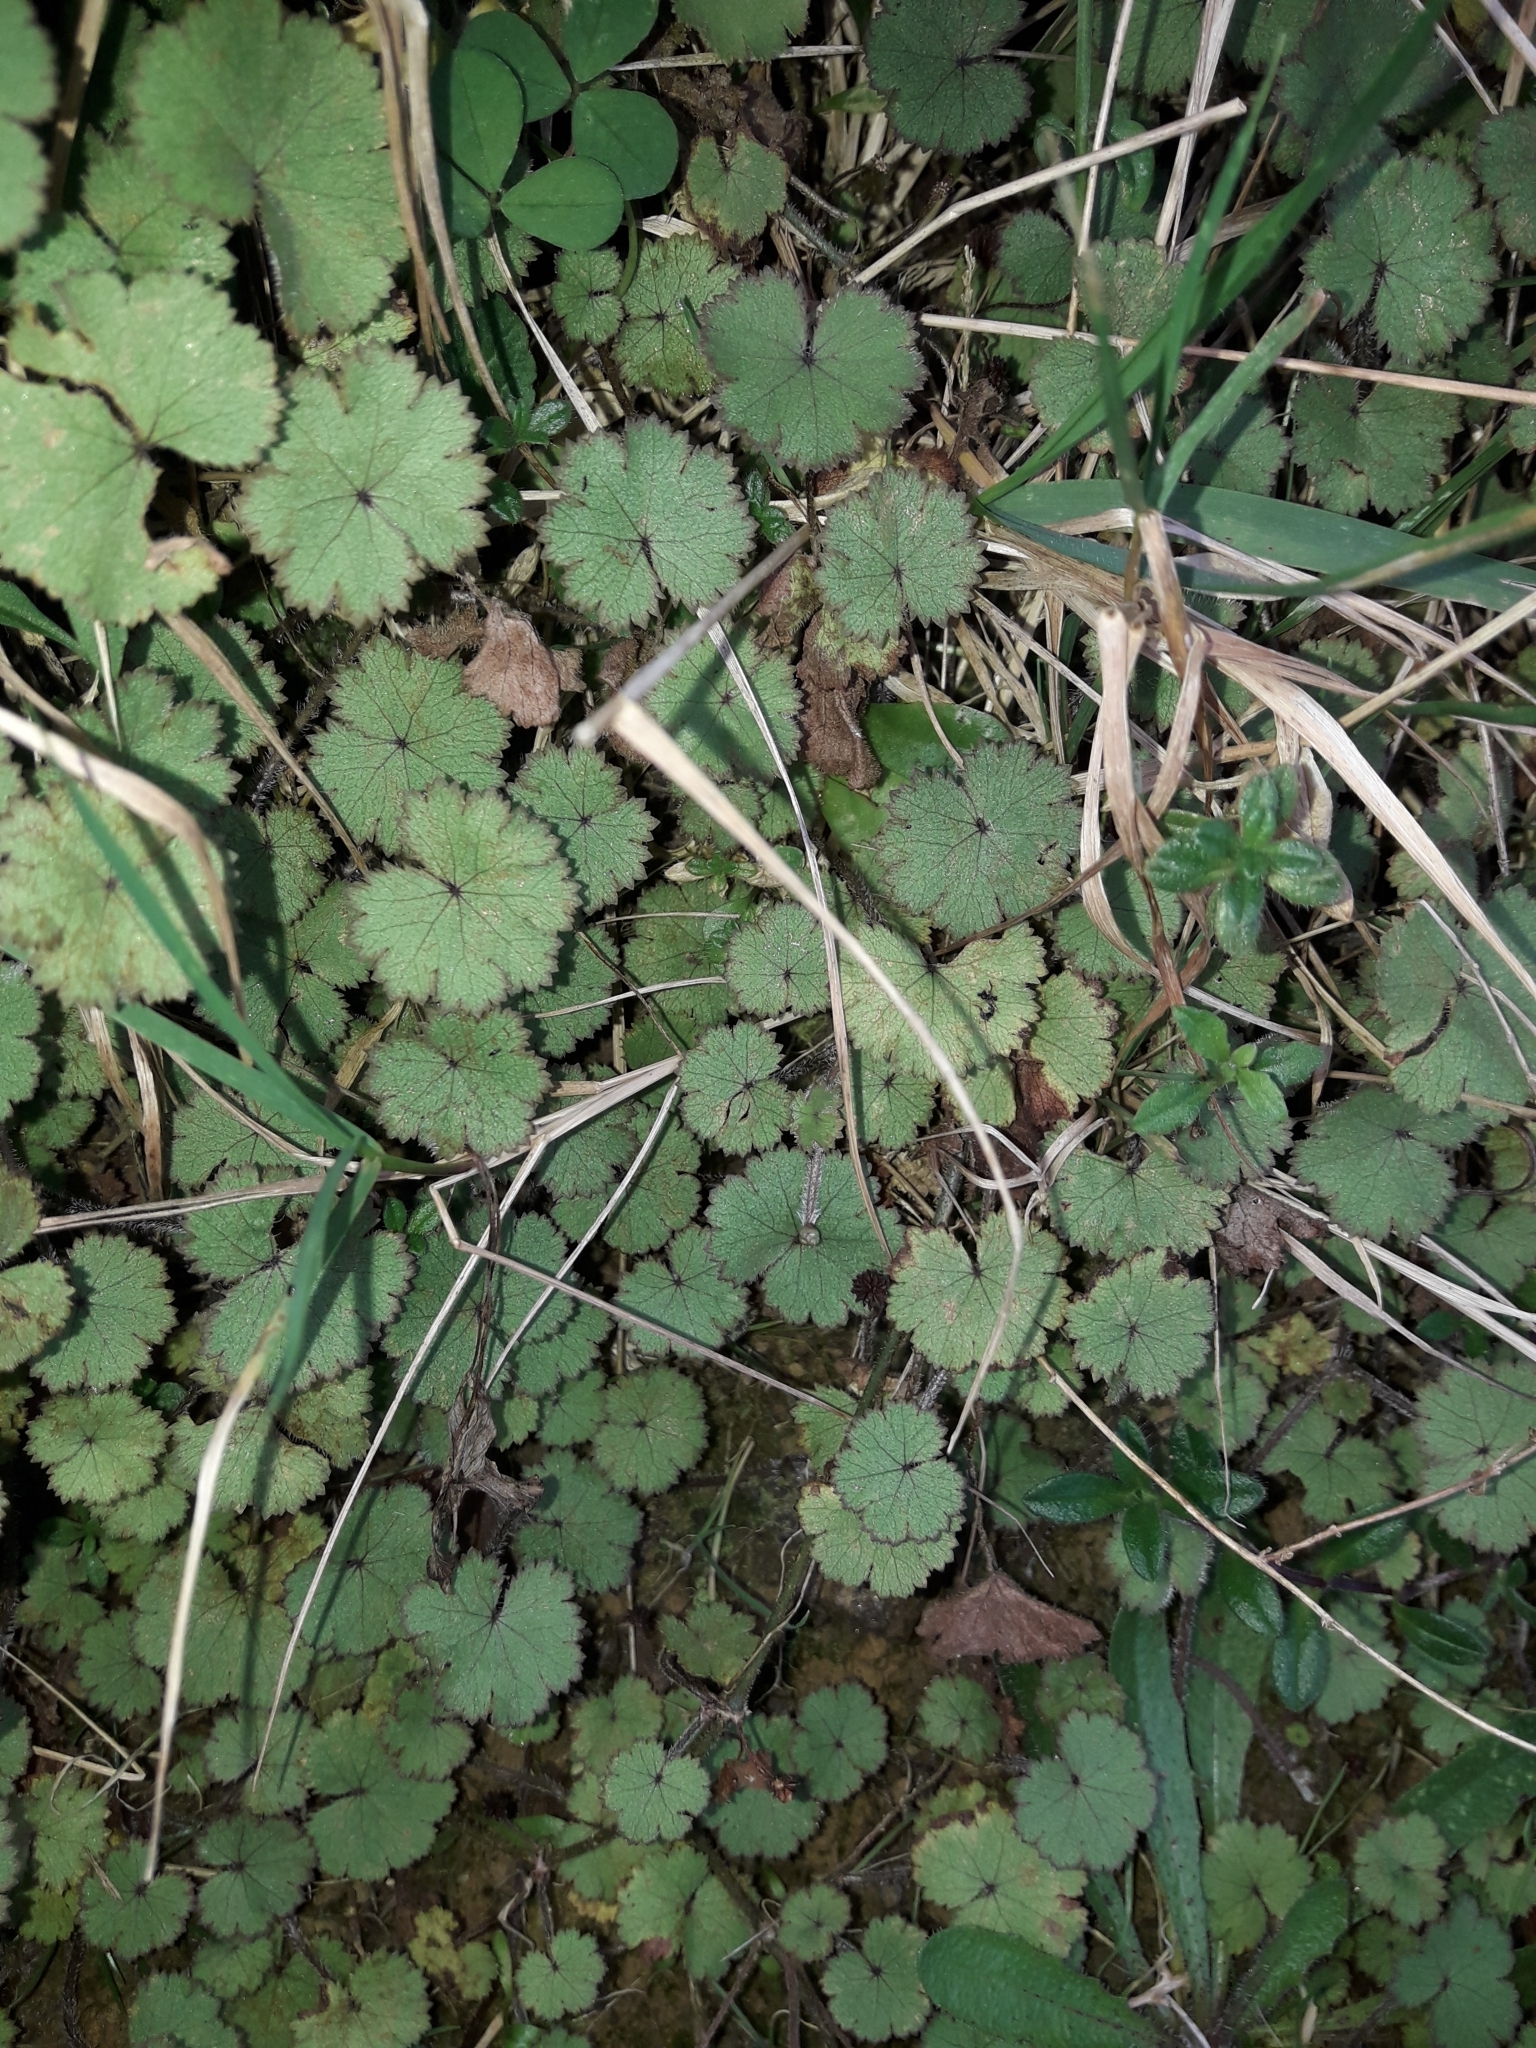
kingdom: Plantae
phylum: Tracheophyta
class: Magnoliopsida
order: Apiales
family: Araliaceae
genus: Hydrocotyle
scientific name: Hydrocotyle moschata
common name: Hairy pennywort
